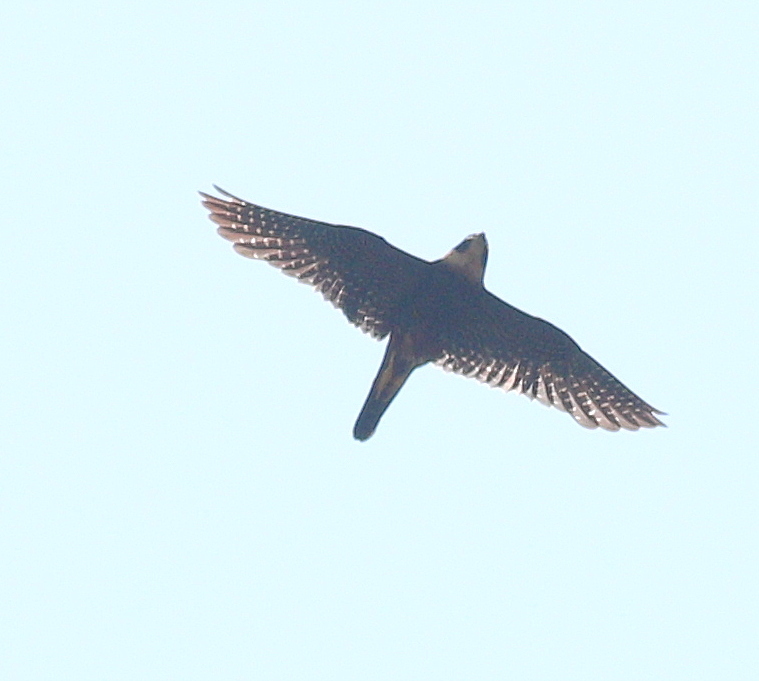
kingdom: Animalia
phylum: Chordata
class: Aves
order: Falconiformes
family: Falconidae
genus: Falco
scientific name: Falco rufigularis
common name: Bat falcon
